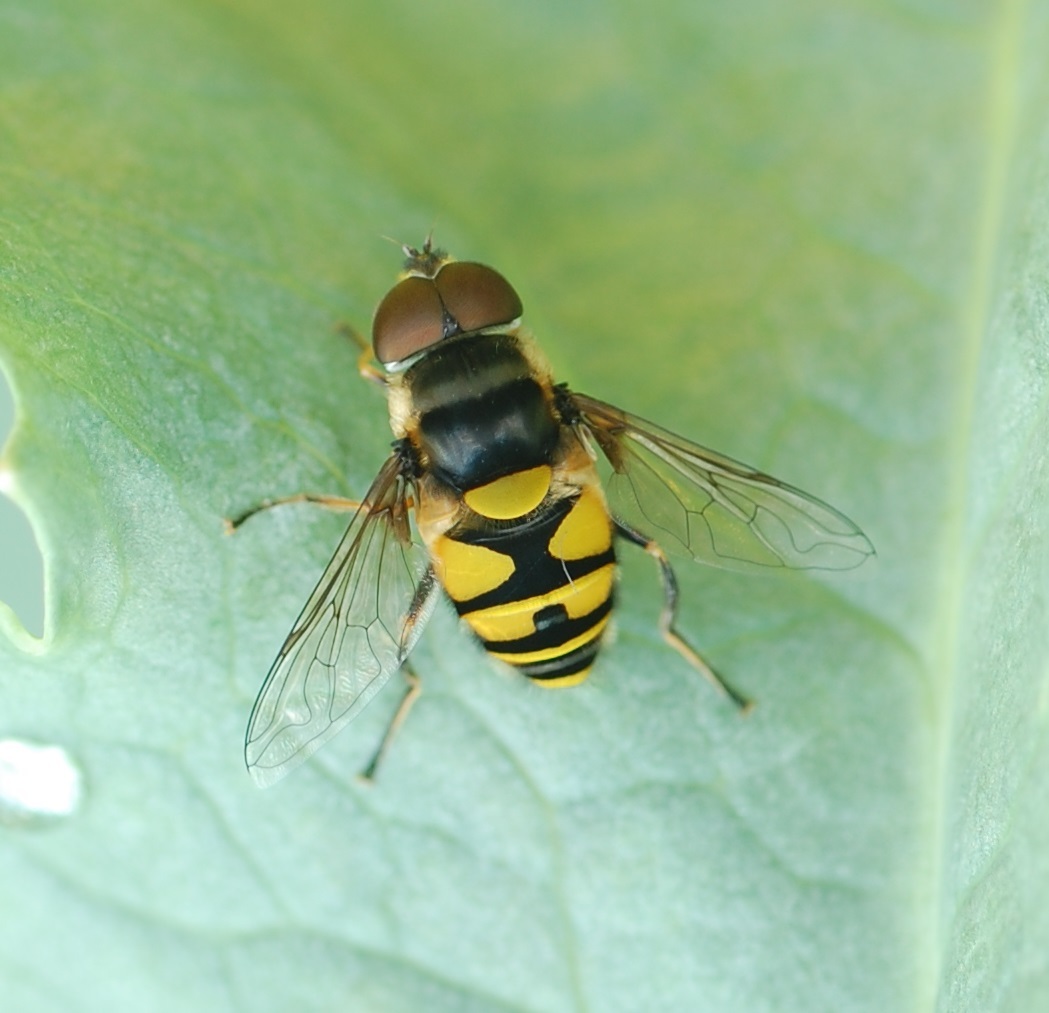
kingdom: Animalia
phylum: Arthropoda
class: Insecta
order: Diptera
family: Syrphidae
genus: Eristalis
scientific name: Eristalis transversa
